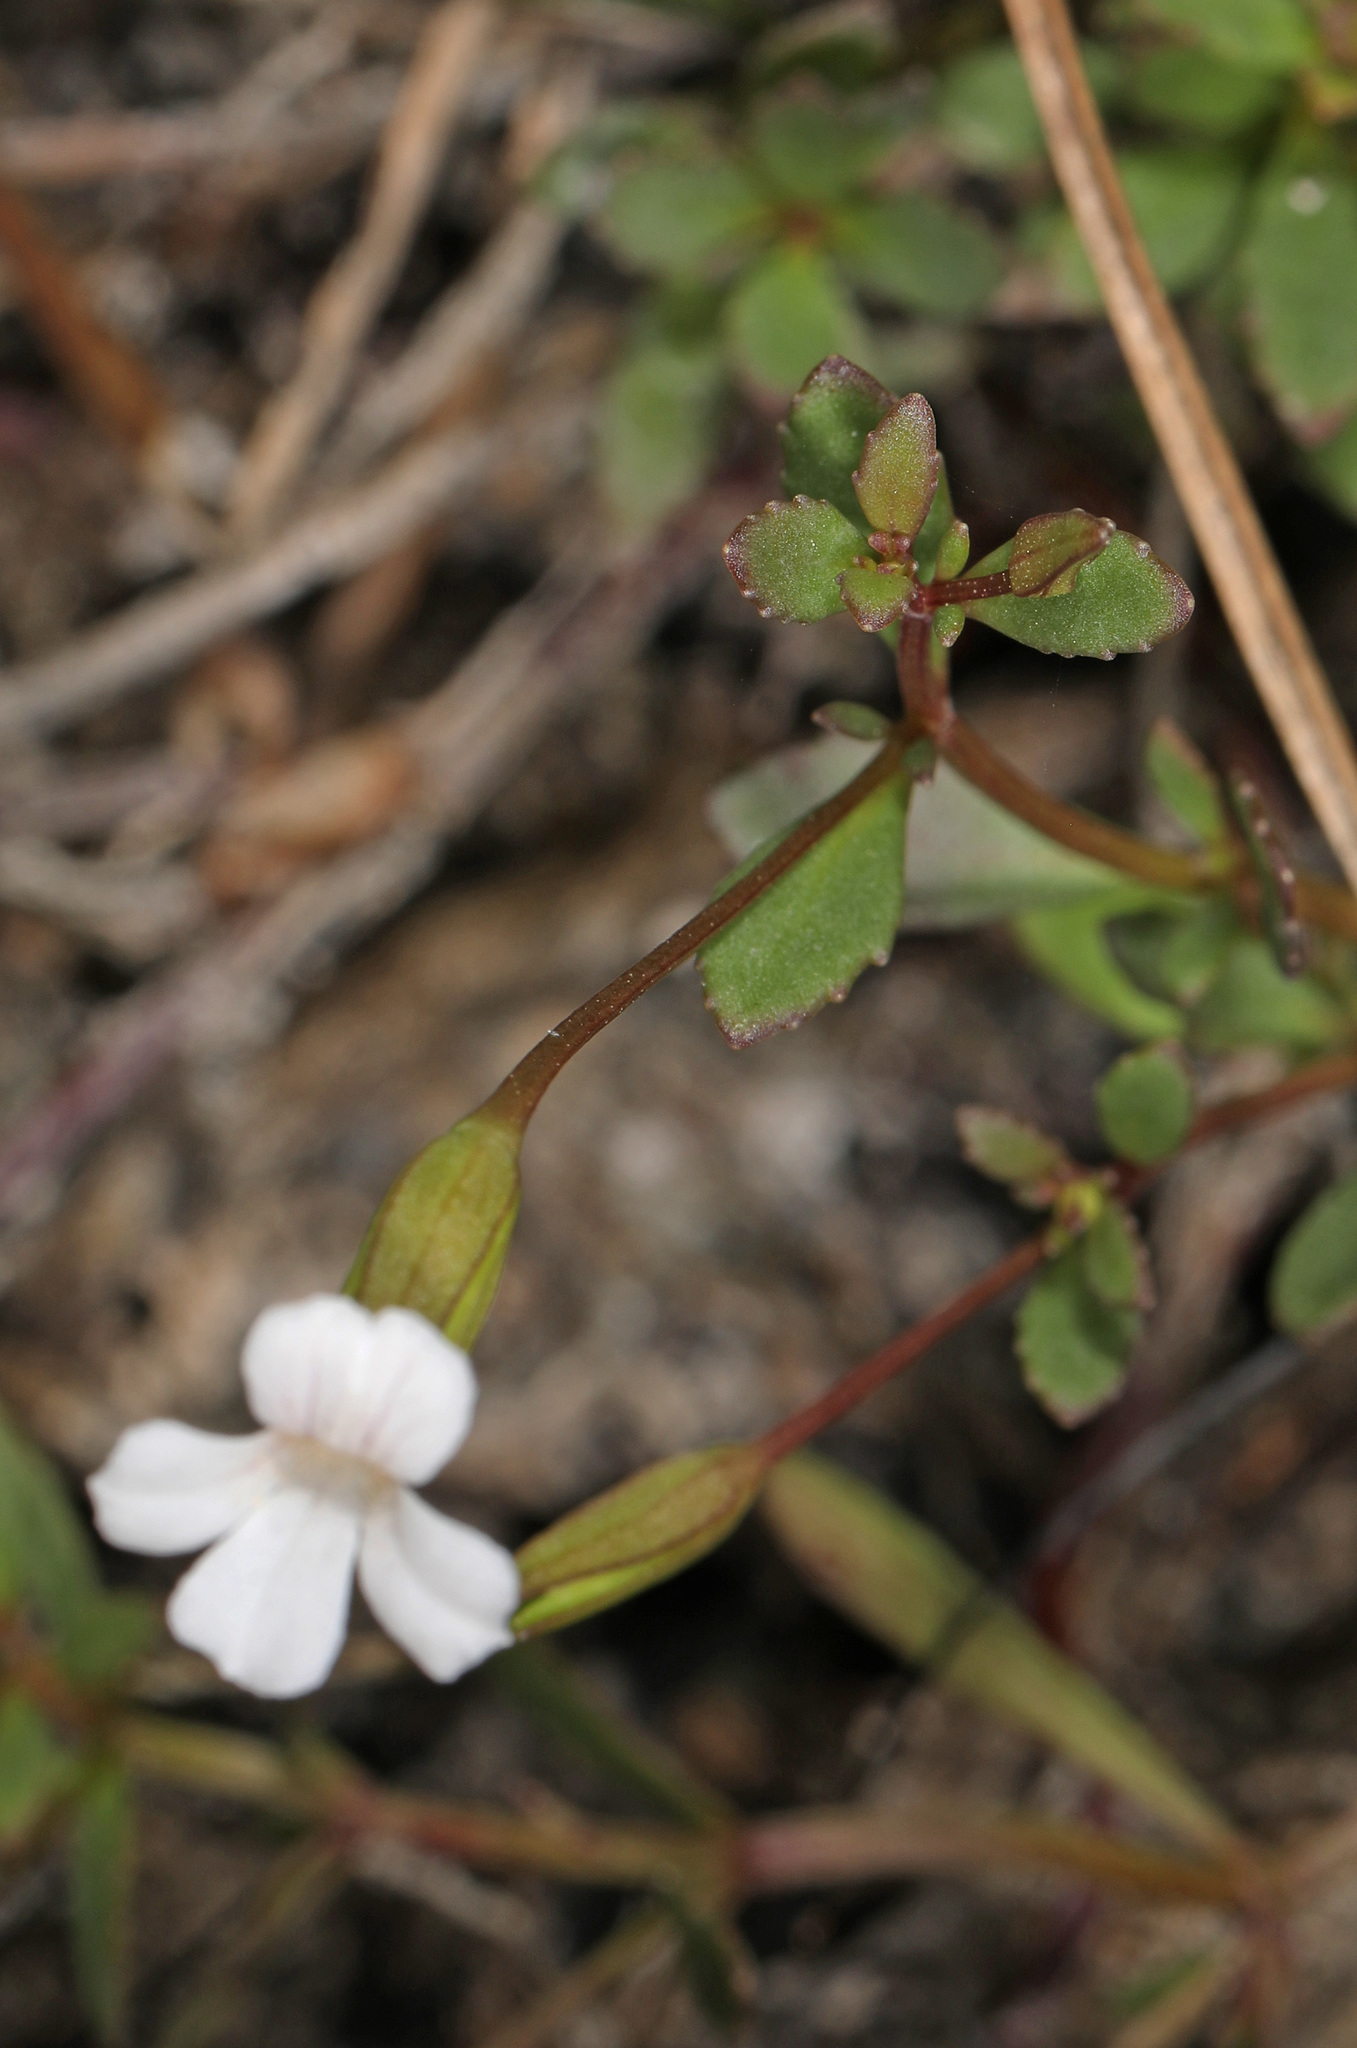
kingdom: Plantae
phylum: Tracheophyta
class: Magnoliopsida
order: Lamiales
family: Plantaginaceae
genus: Mecardonia
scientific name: Mecardonia acuminata
